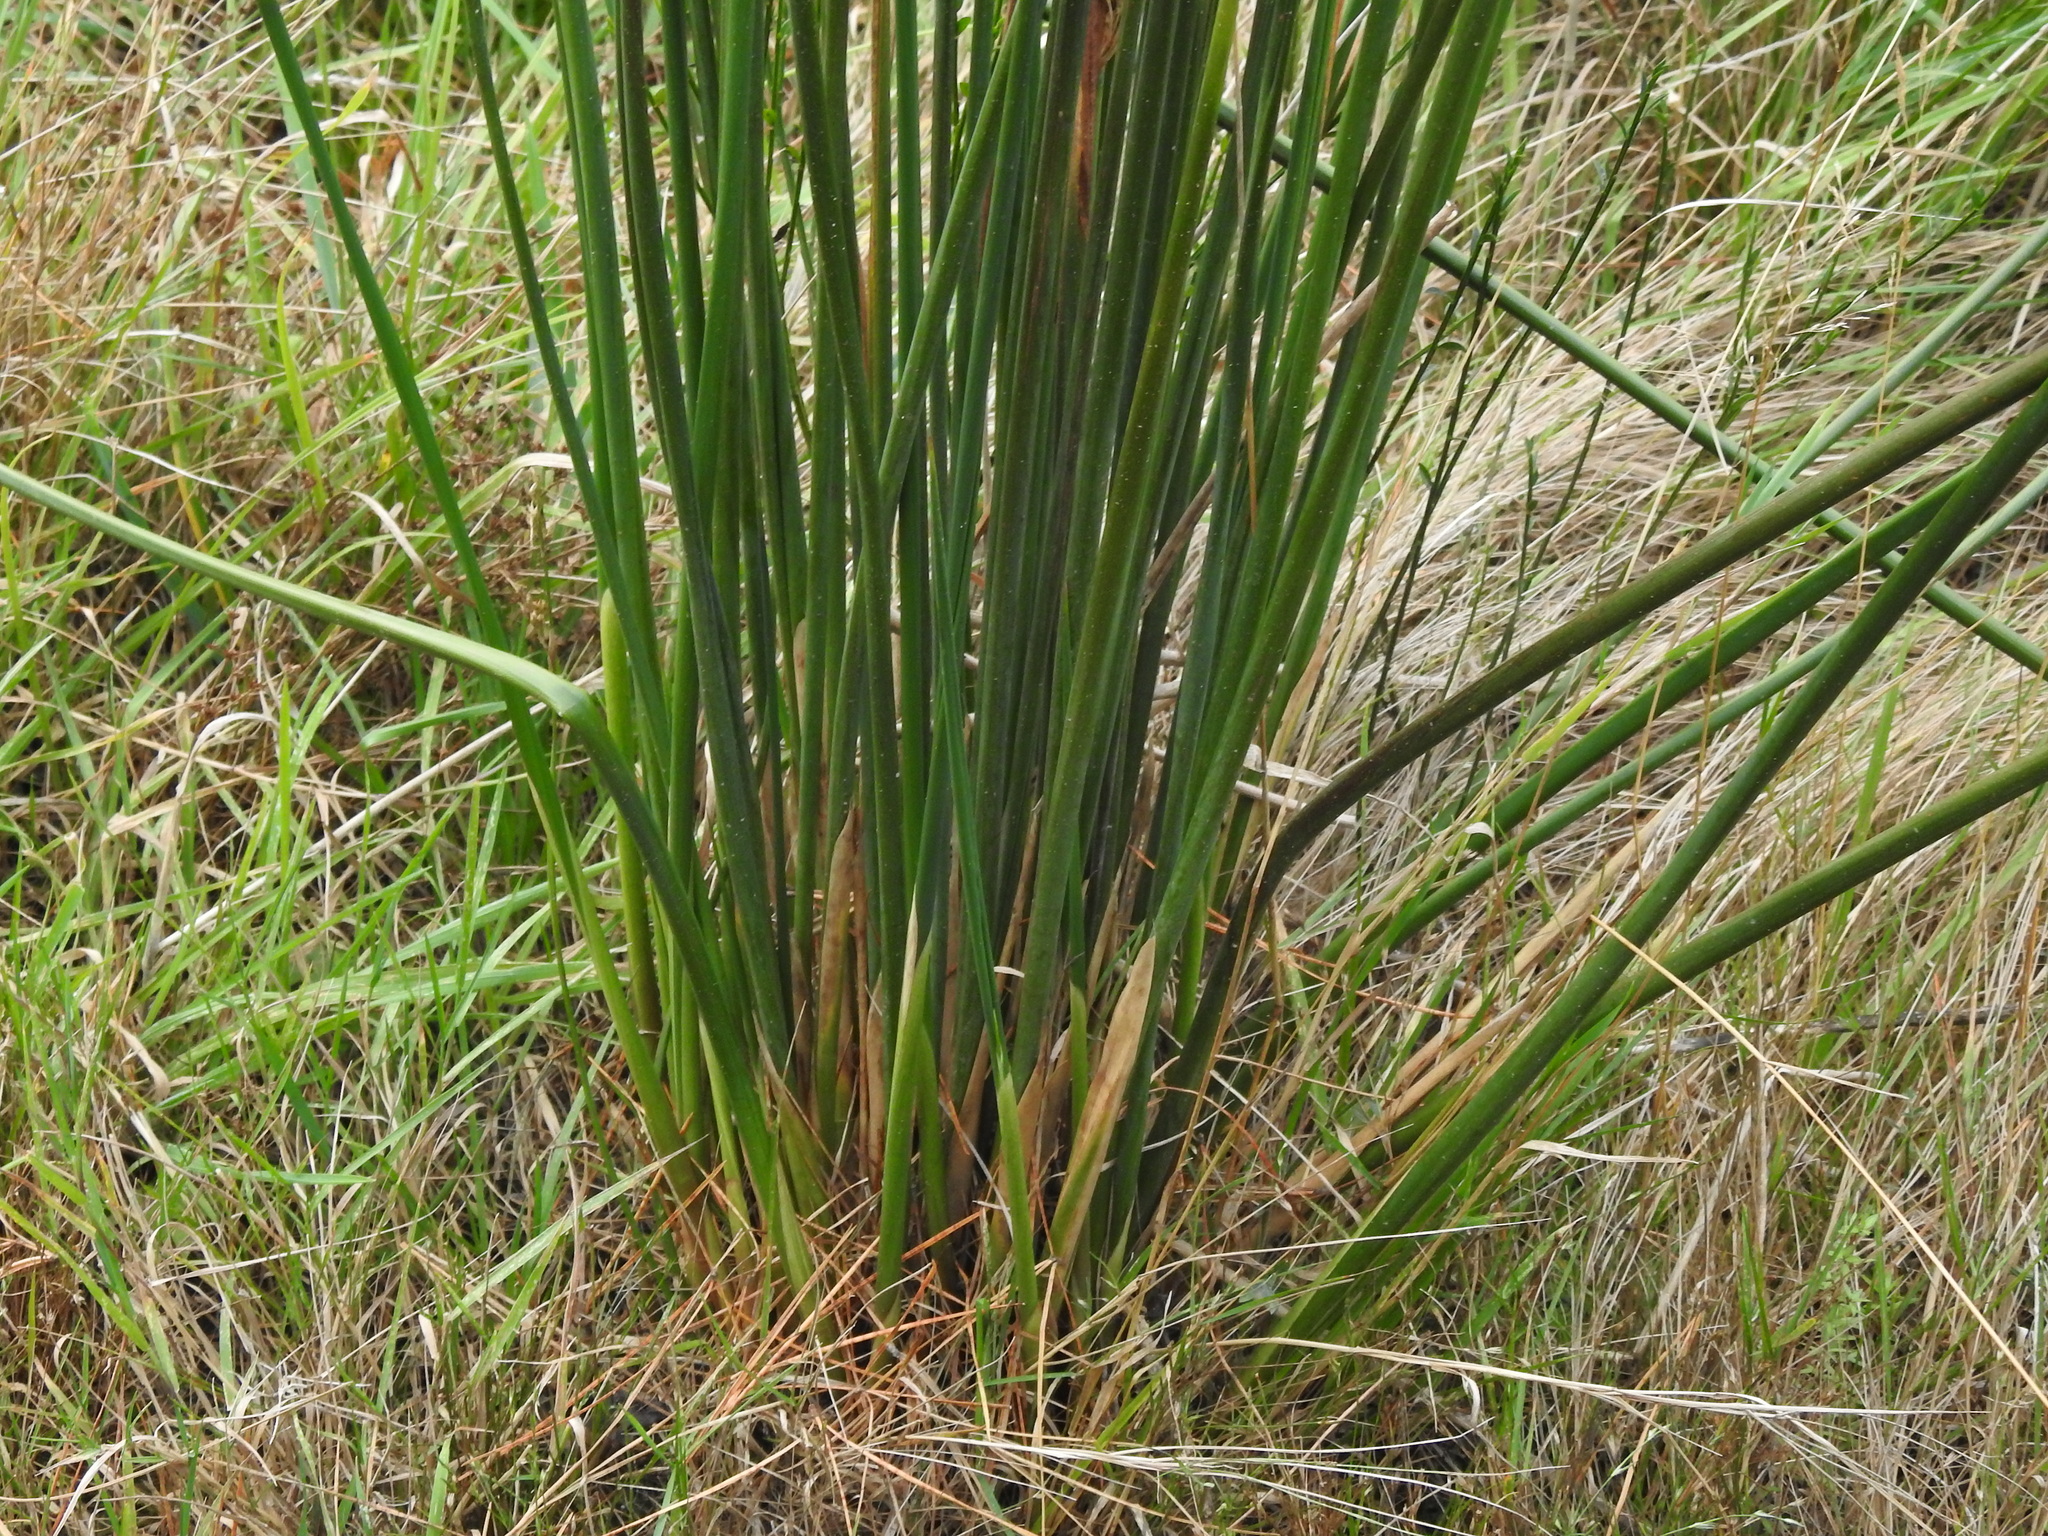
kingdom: Plantae
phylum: Tracheophyta
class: Liliopsida
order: Poales
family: Juncaceae
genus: Juncus
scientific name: Juncus pallidus
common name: Great soft-rush
